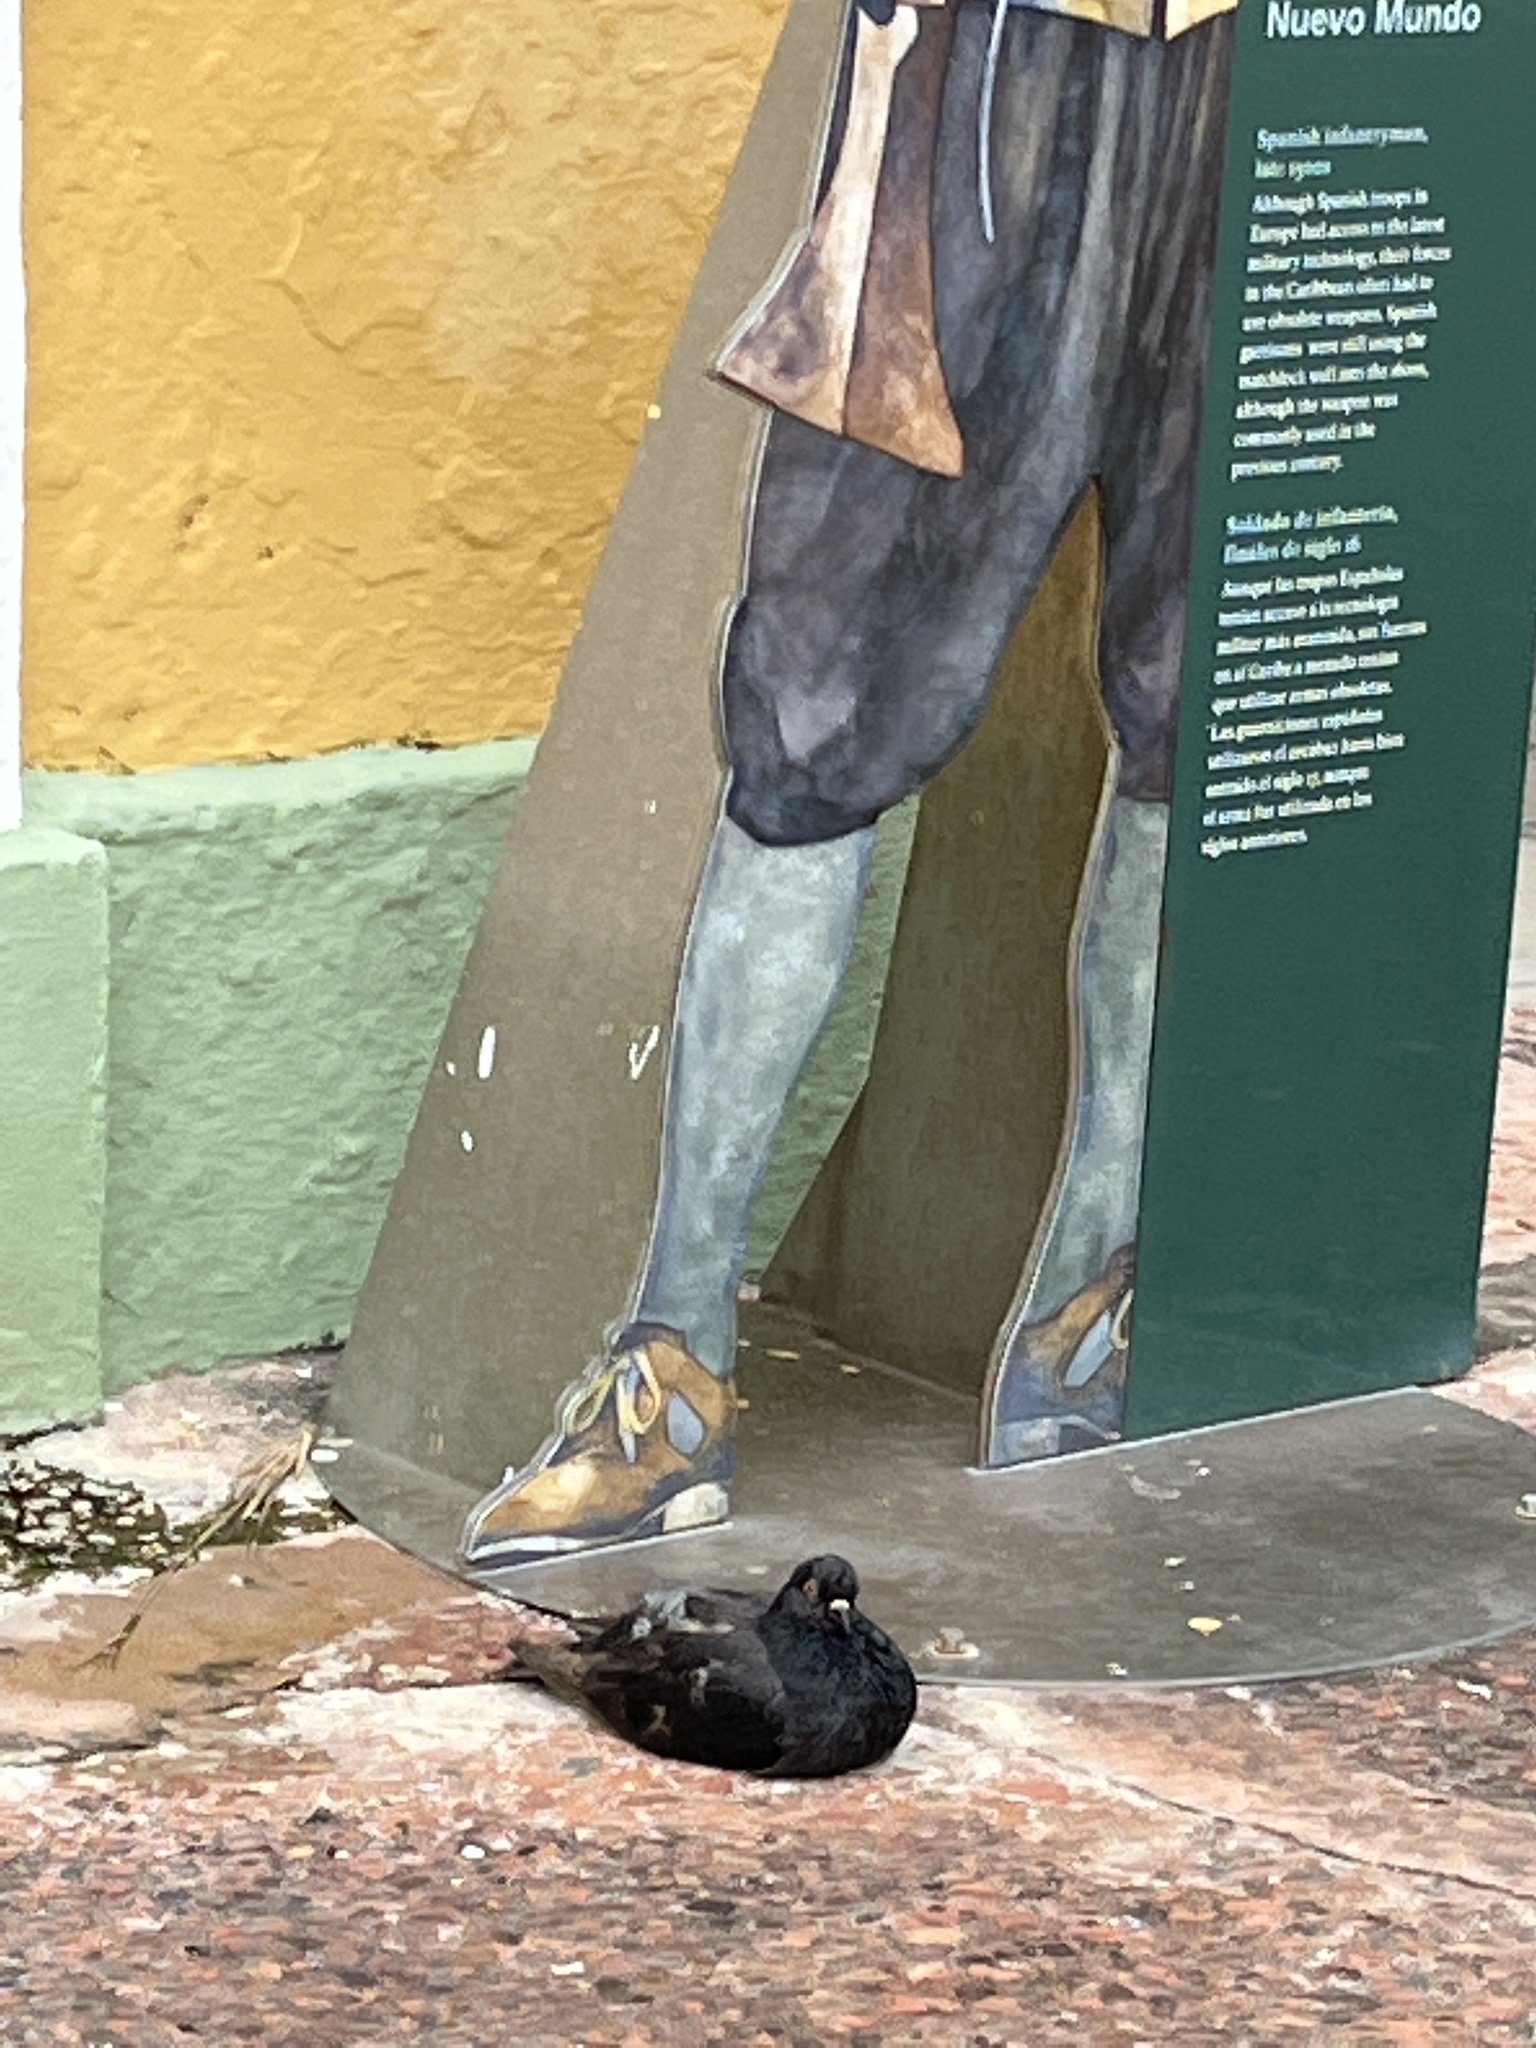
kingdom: Animalia
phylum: Chordata
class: Aves
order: Columbiformes
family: Columbidae
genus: Columba
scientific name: Columba livia
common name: Rock pigeon
